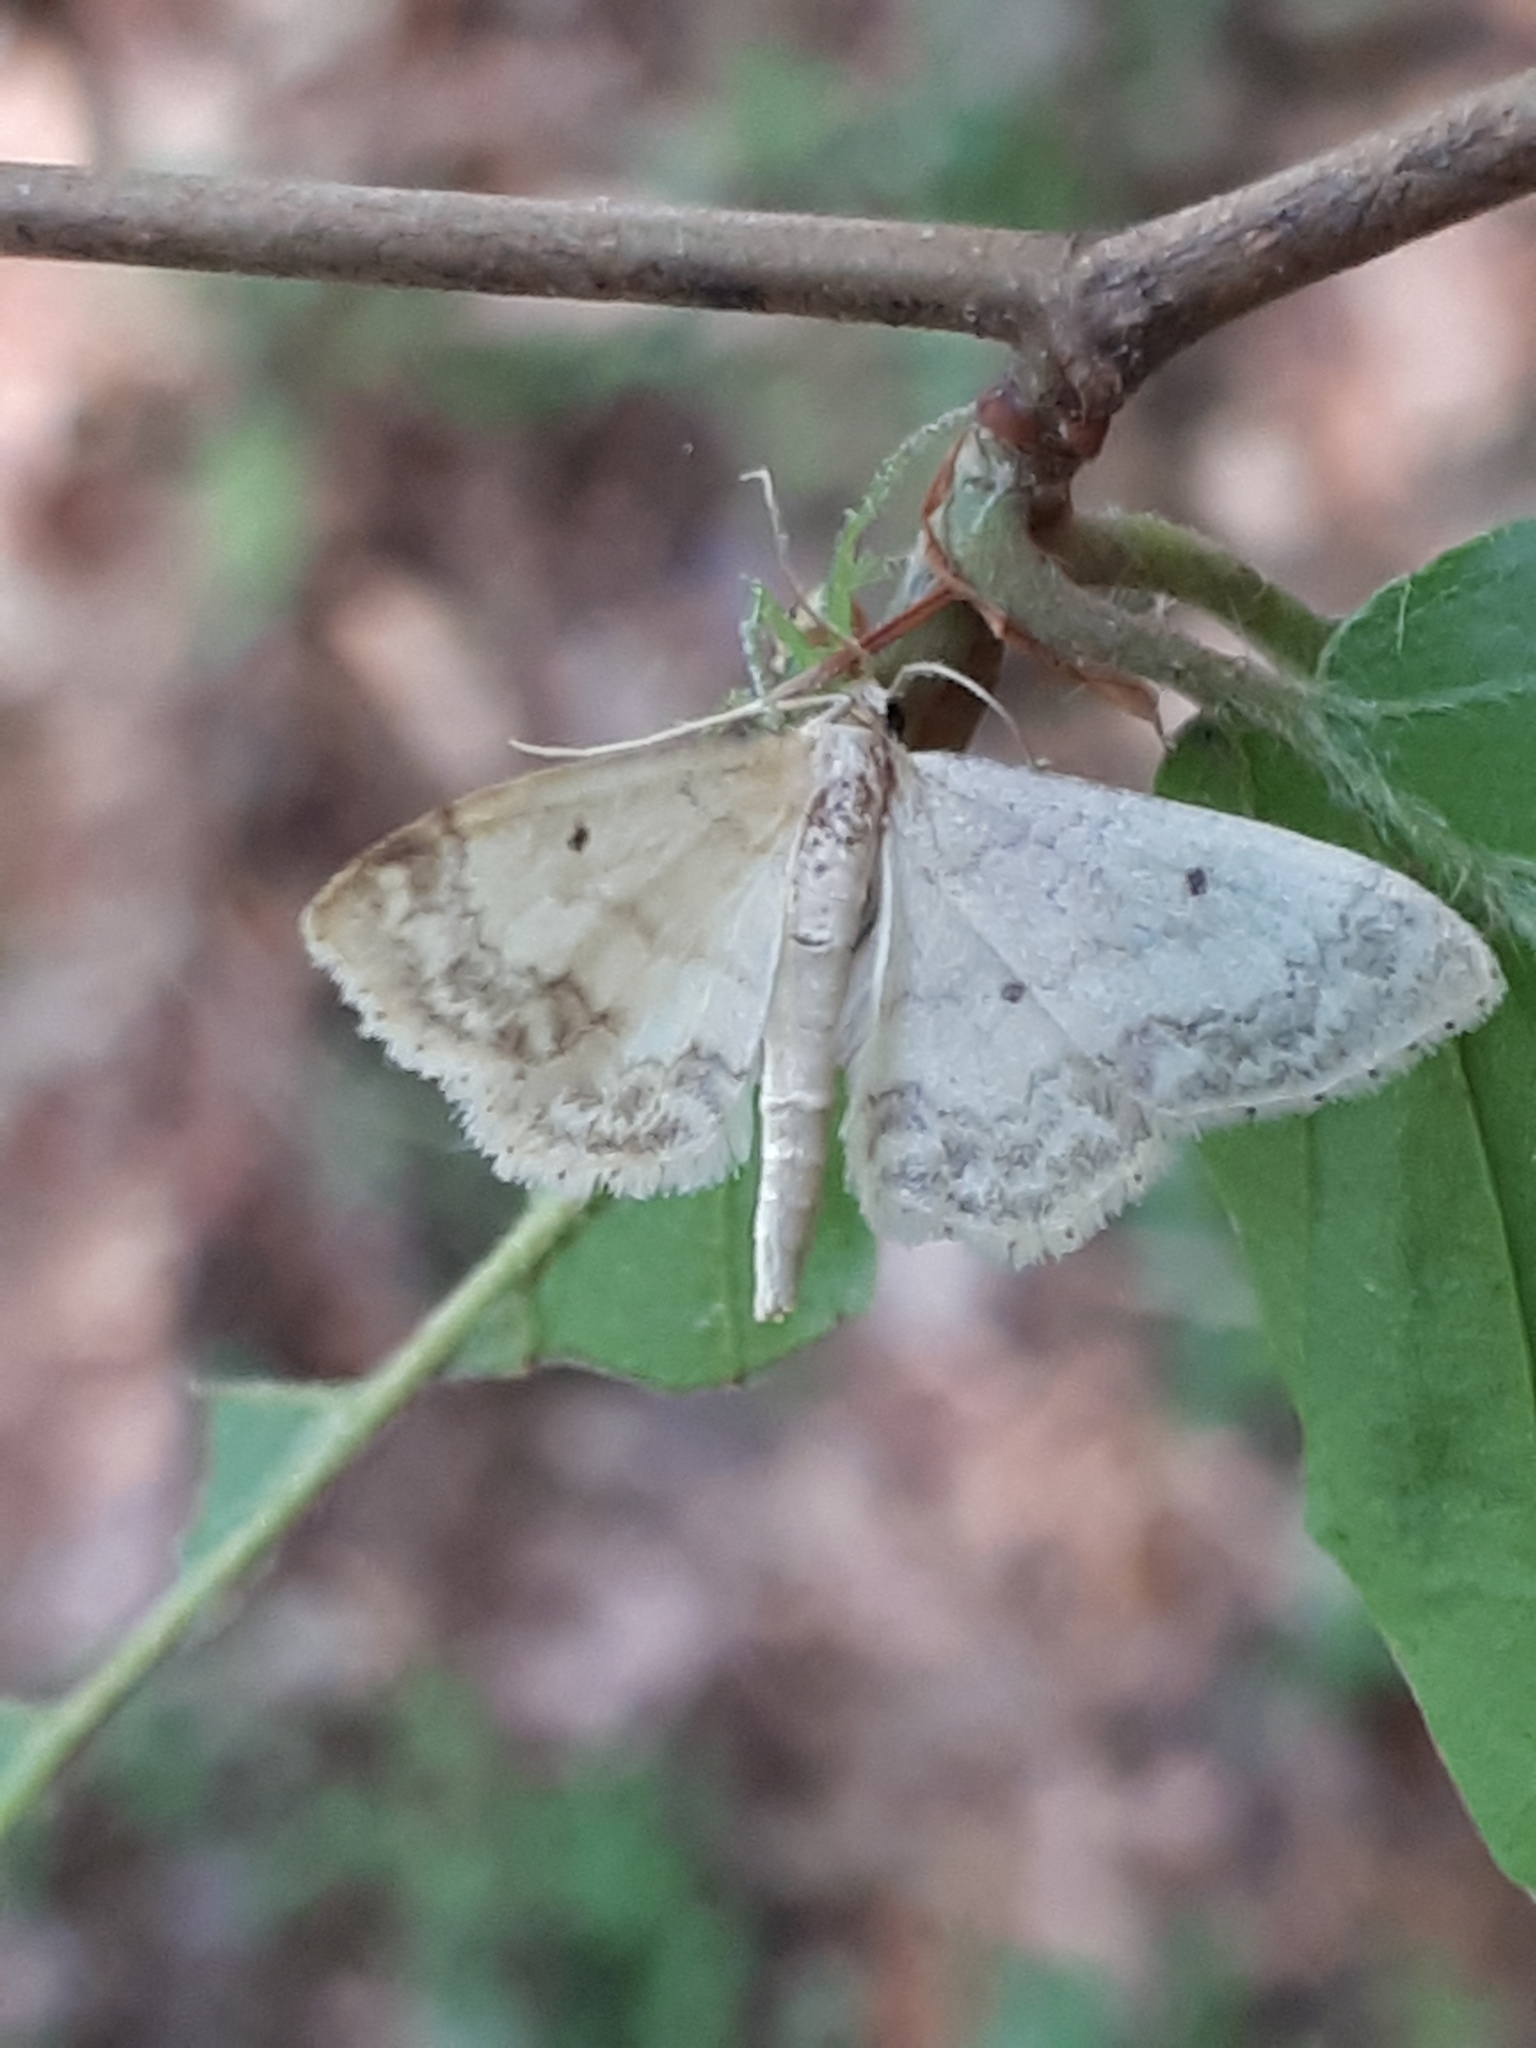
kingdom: Animalia
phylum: Arthropoda
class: Insecta
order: Lepidoptera
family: Geometridae
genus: Idaea
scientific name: Idaea biselata
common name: Small fan-footed wave
